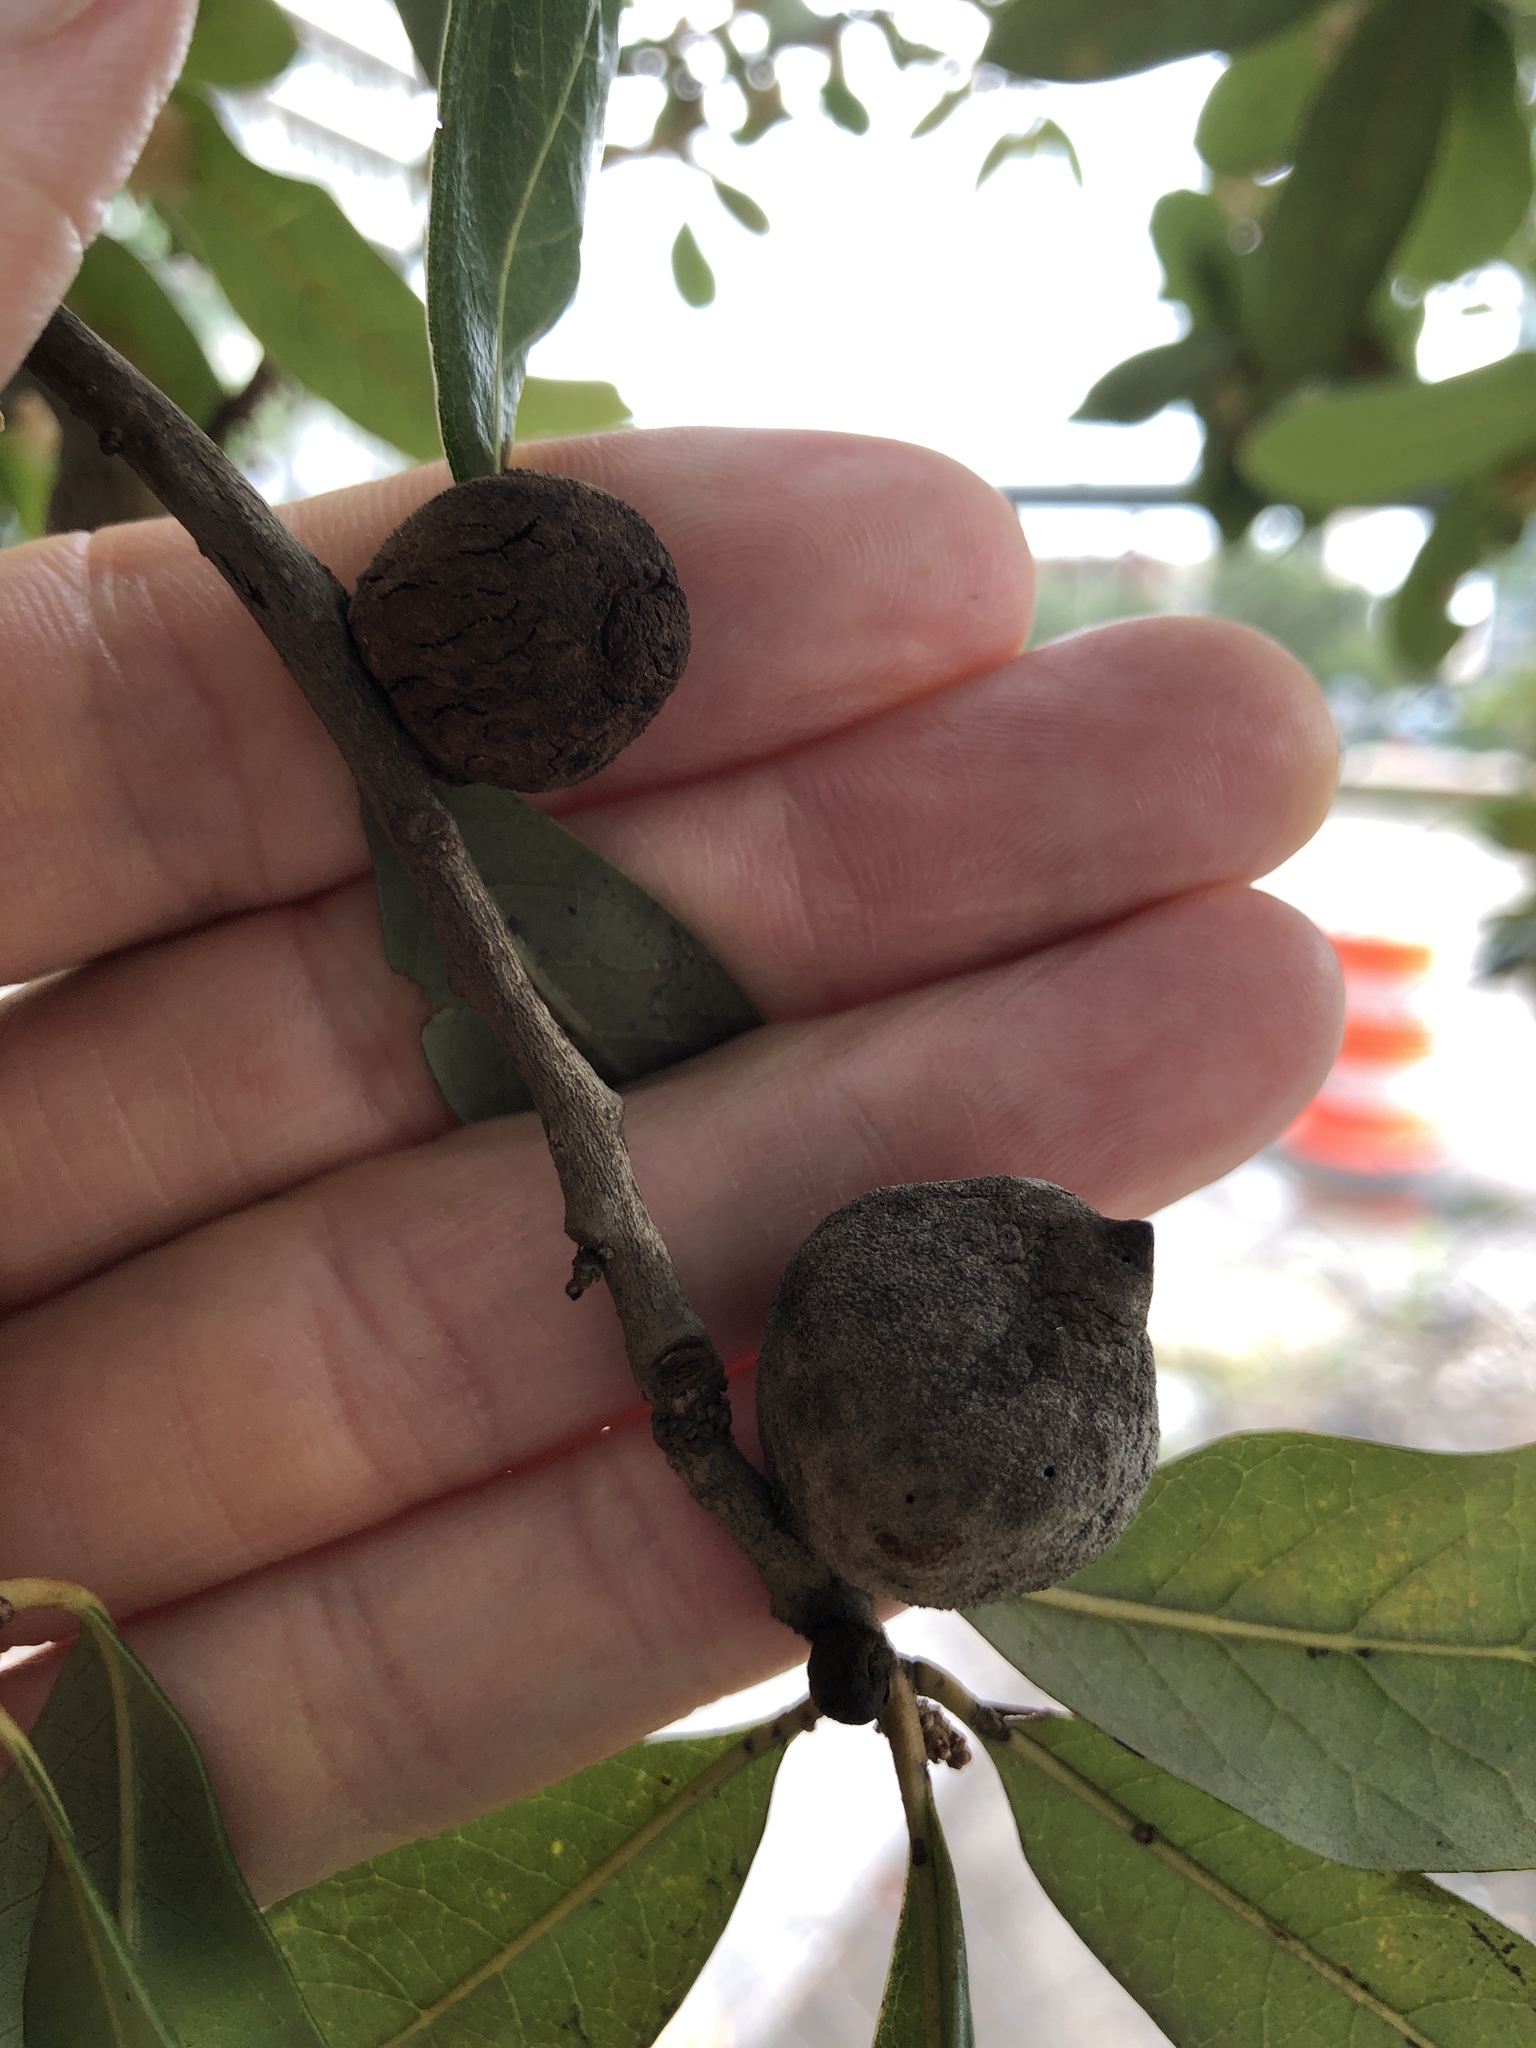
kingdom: Animalia
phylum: Arthropoda
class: Insecta
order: Hymenoptera
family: Cynipidae
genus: Disholcaspis
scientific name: Disholcaspis
